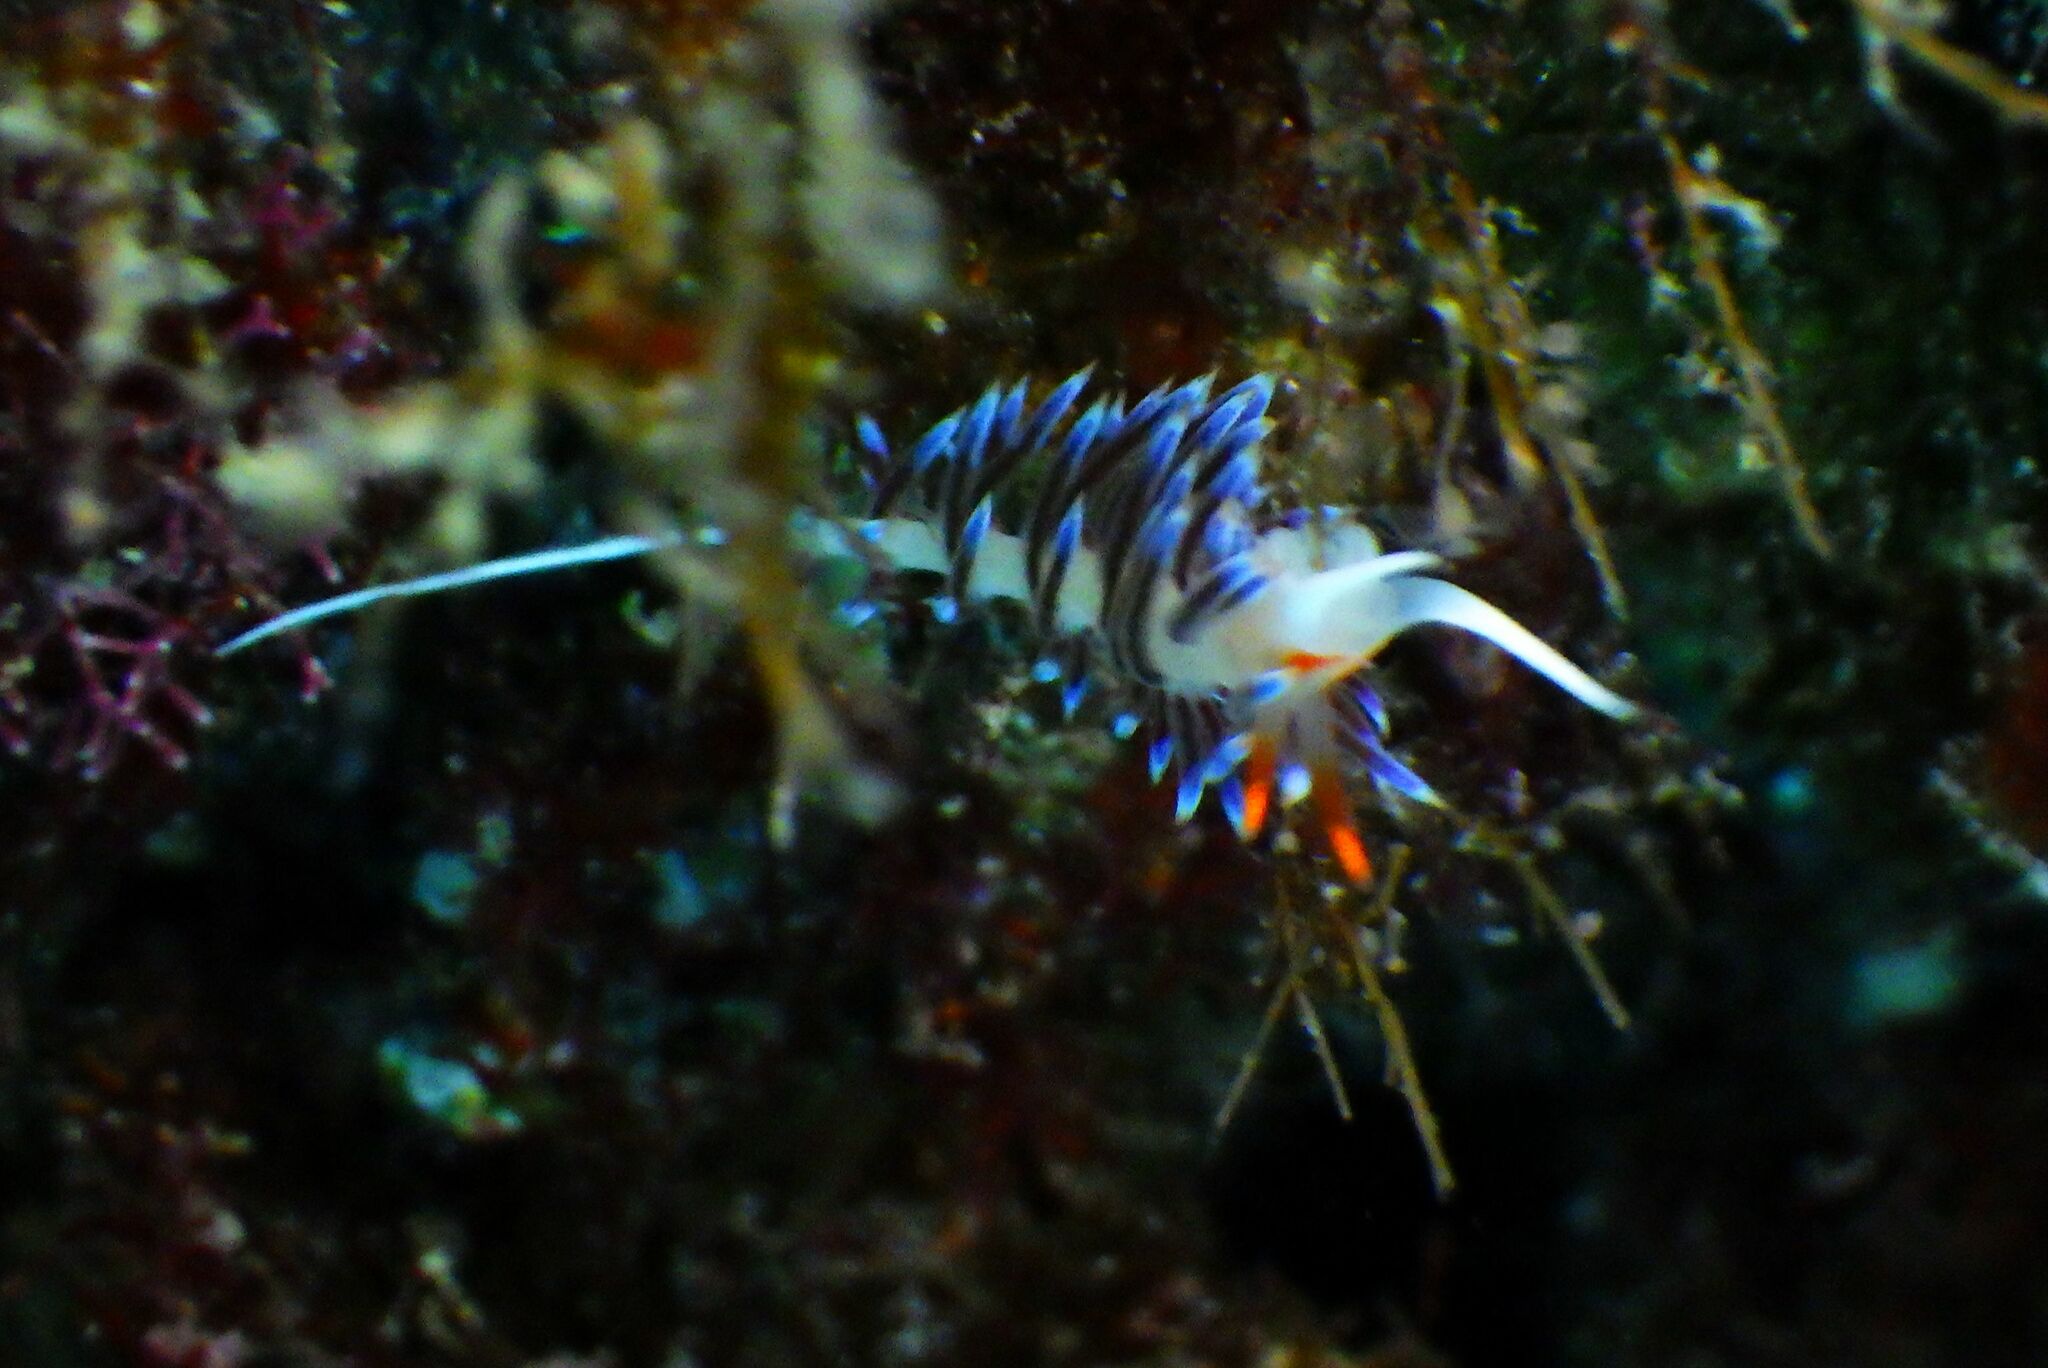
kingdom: Animalia
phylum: Mollusca
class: Gastropoda
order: Nudibranchia
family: Facelinidae
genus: Cratena
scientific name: Cratena peregrina
